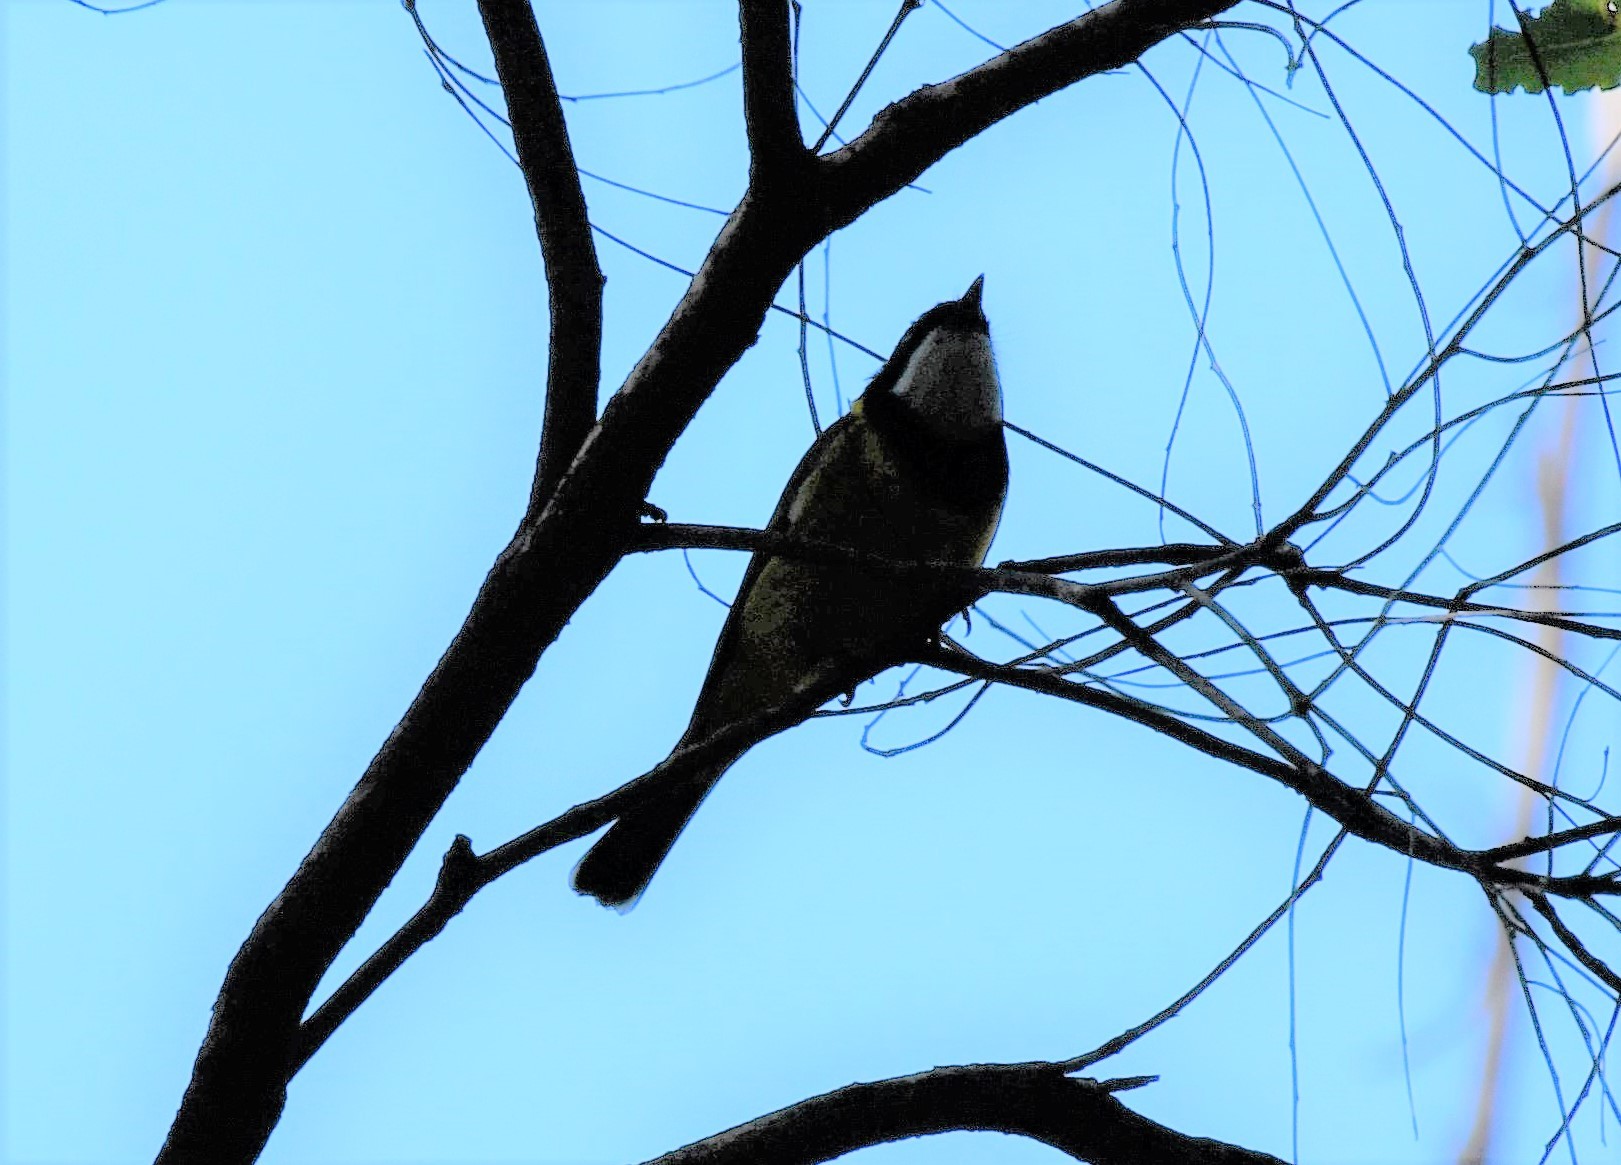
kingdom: Animalia
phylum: Chordata
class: Aves
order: Passeriformes
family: Pachycephalidae
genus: Pachycephala
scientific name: Pachycephala pectoralis
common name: Australian golden whistler
